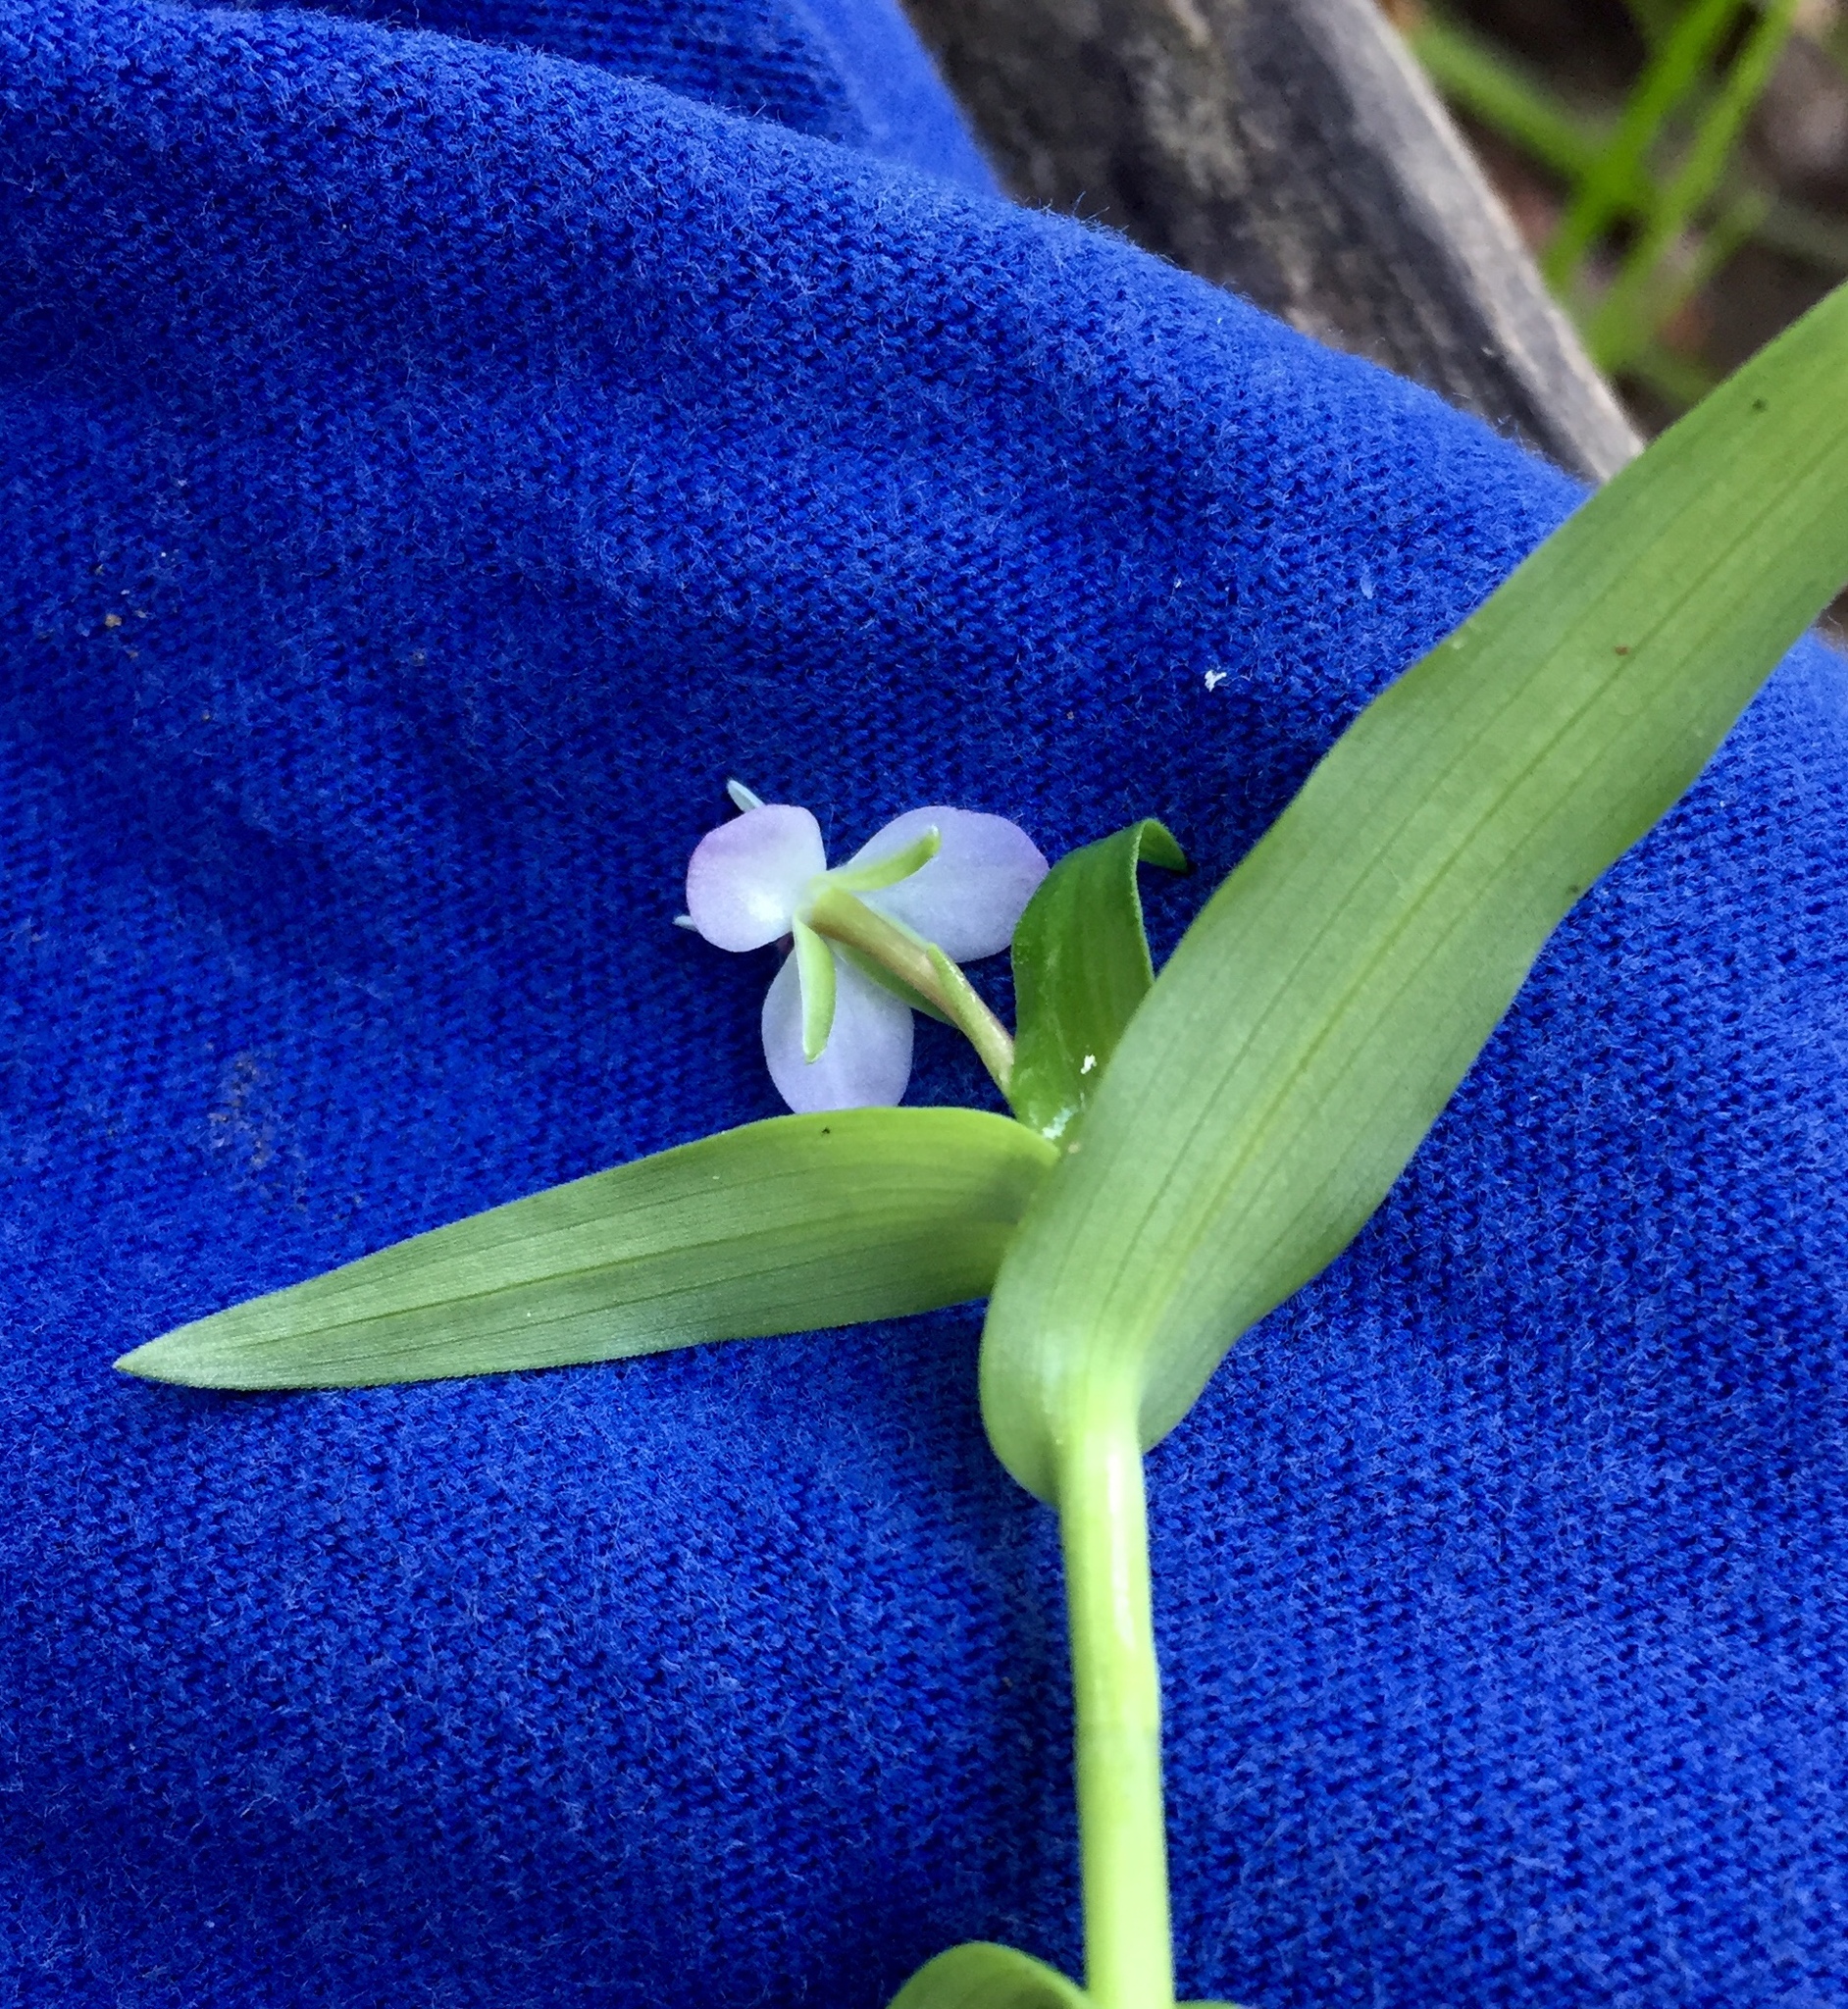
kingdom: Plantae
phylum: Tracheophyta
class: Liliopsida
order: Commelinales
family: Commelinaceae
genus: Murdannia
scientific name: Murdannia keisak
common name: Wartremoving herb
